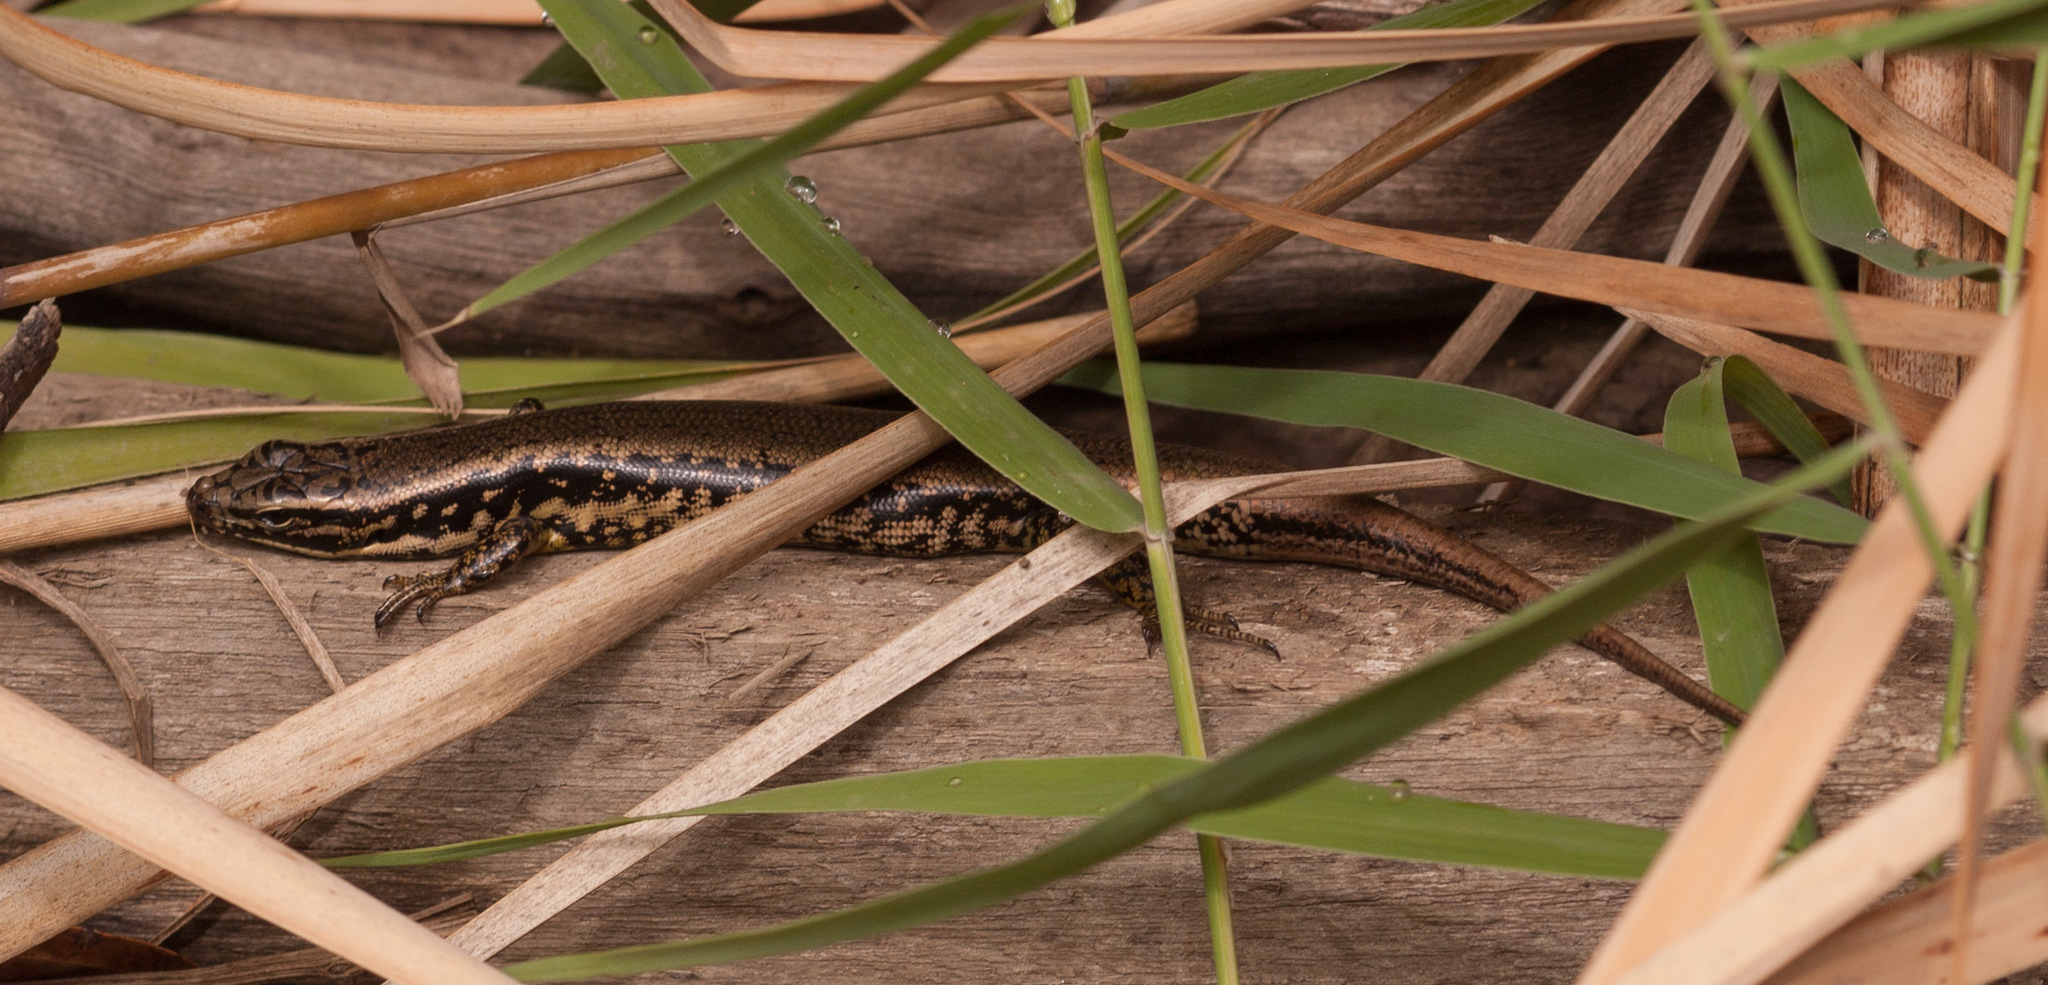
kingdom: Animalia
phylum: Chordata
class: Squamata
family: Scincidae
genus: Eulamprus
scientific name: Eulamprus heatwolei
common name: Warm-temperate water-skink
